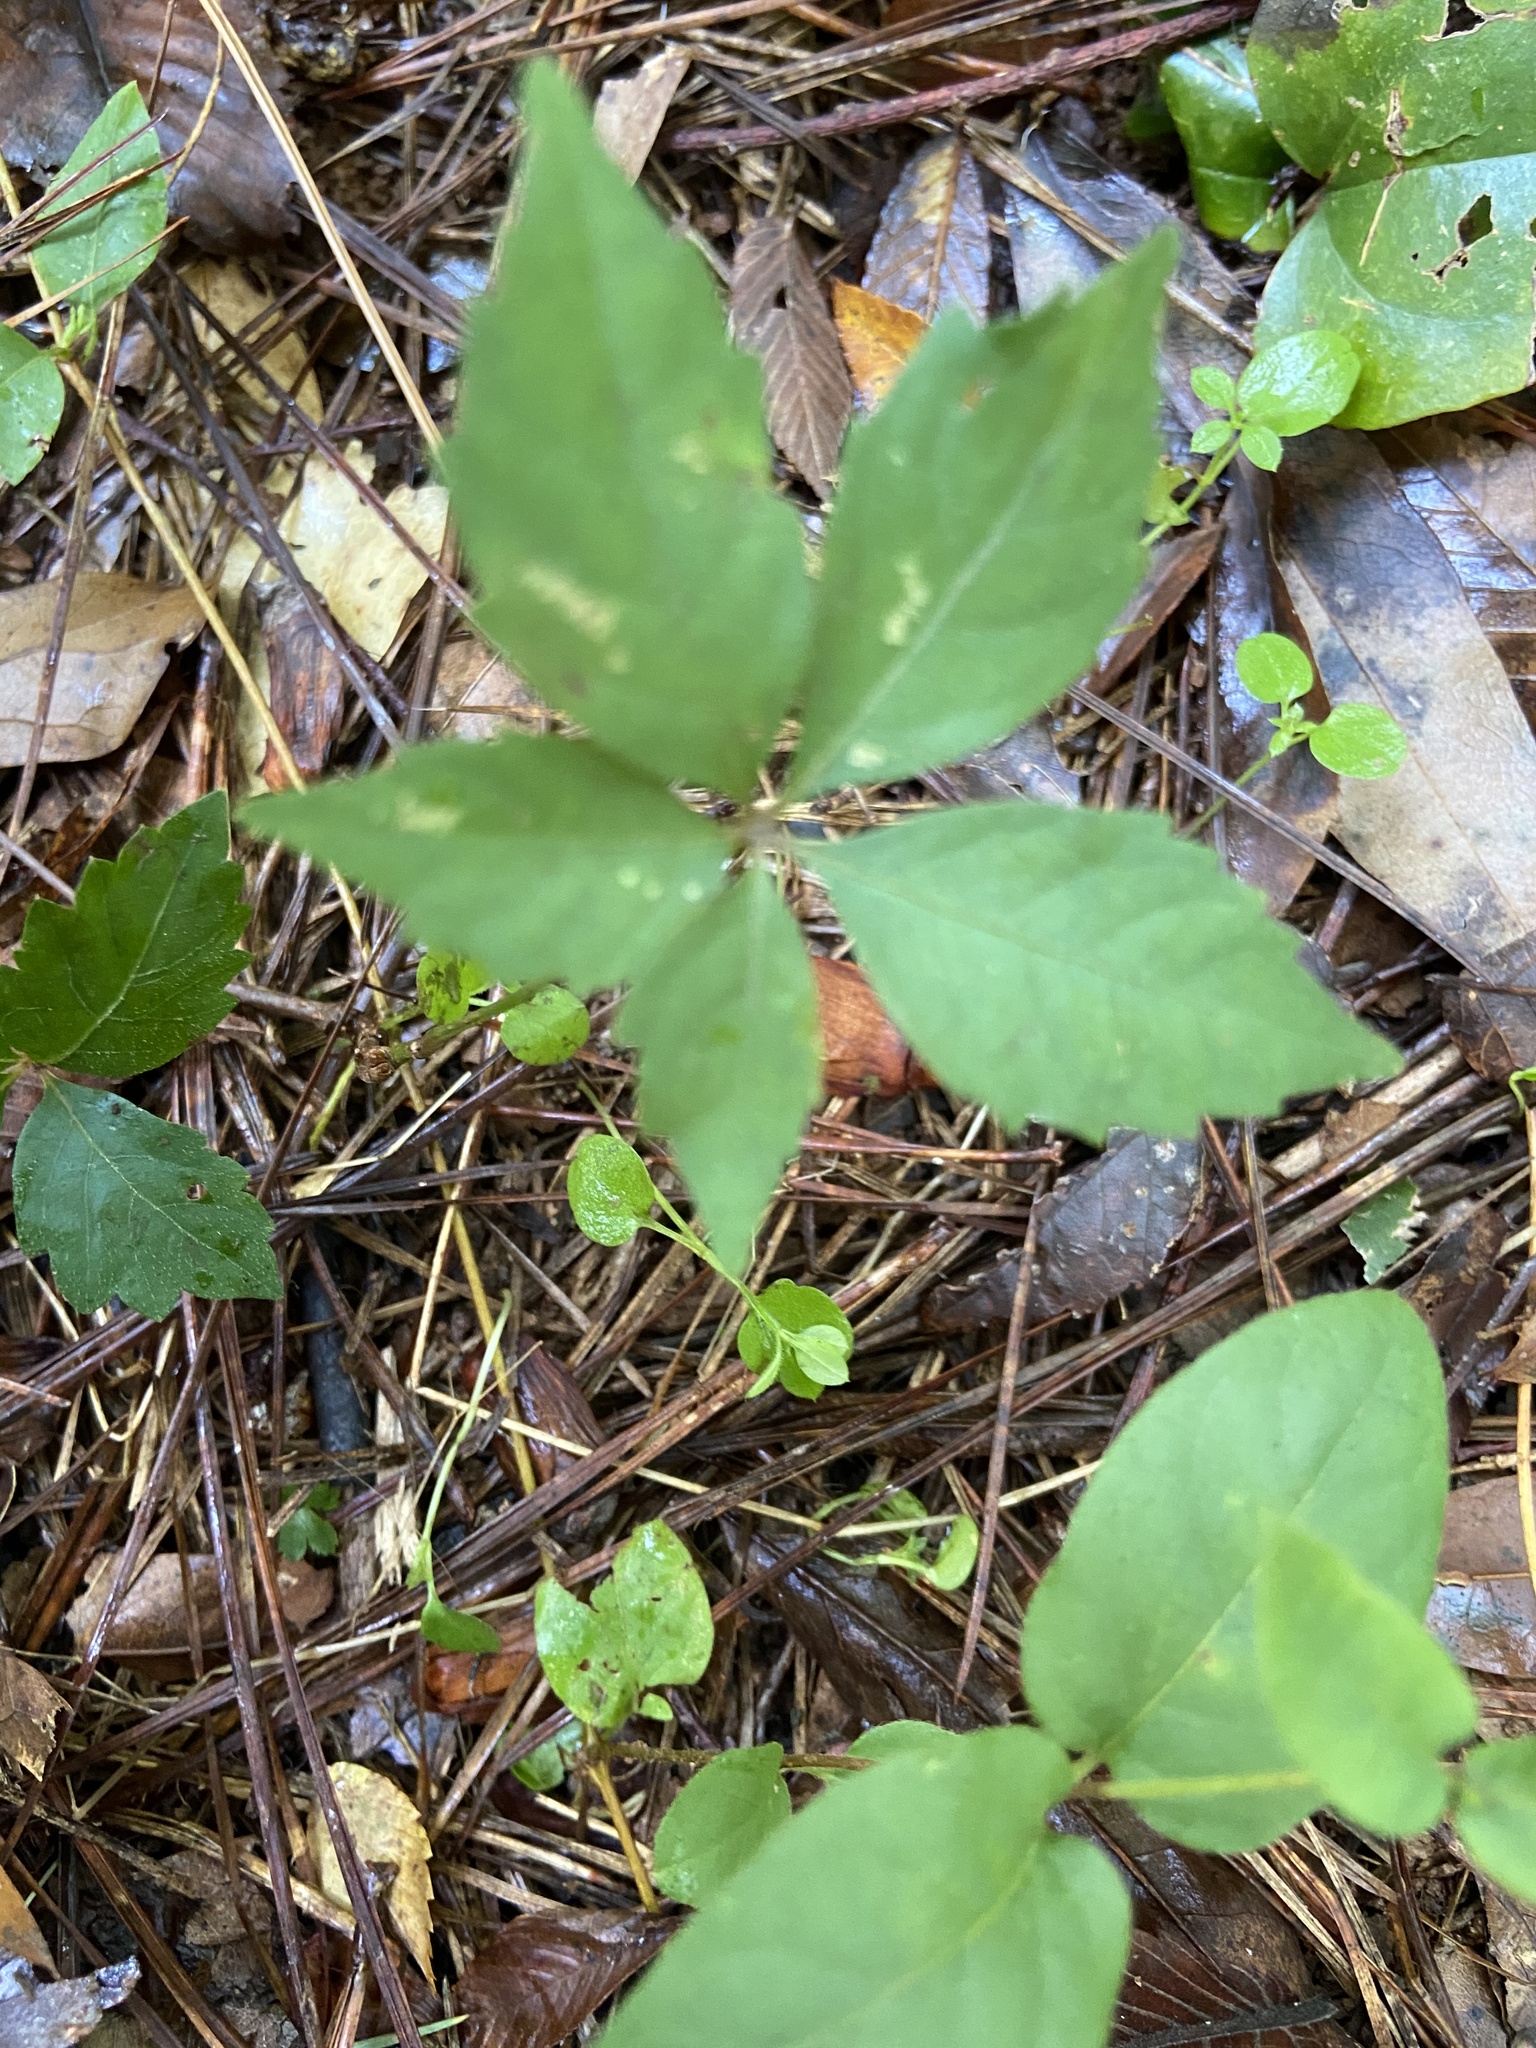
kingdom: Plantae
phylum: Tracheophyta
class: Magnoliopsida
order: Vitales
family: Vitaceae
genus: Parthenocissus
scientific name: Parthenocissus quinquefolia
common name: Virginia-creeper
